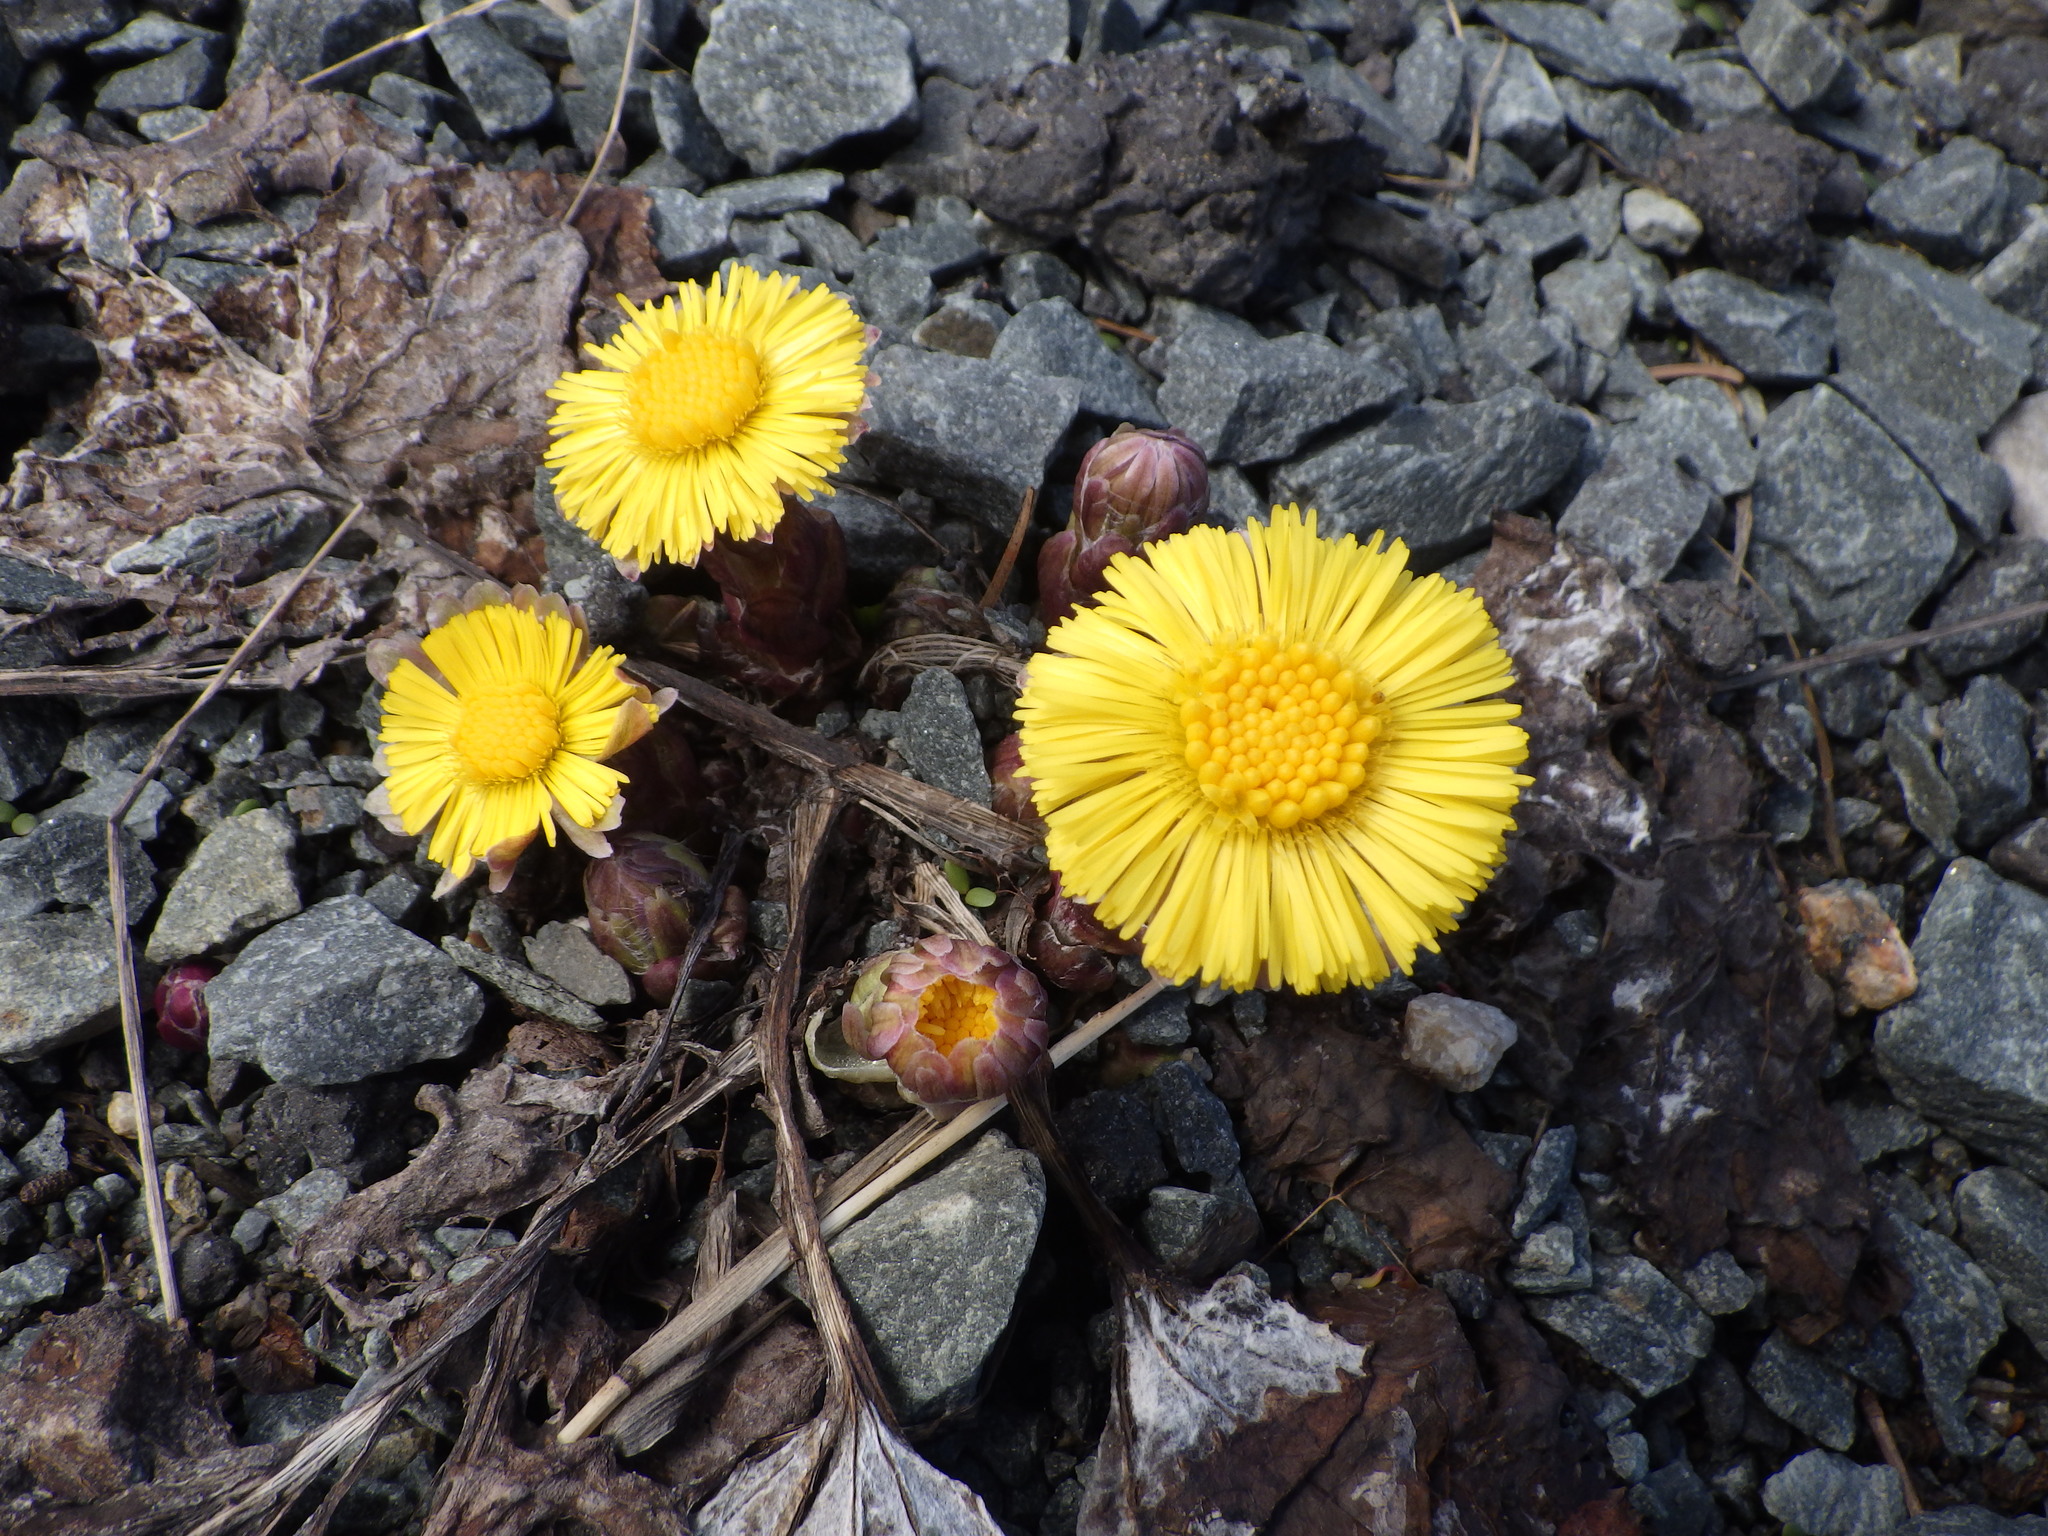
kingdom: Plantae
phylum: Tracheophyta
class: Magnoliopsida
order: Asterales
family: Asteraceae
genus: Tussilago
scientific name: Tussilago farfara
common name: Coltsfoot
